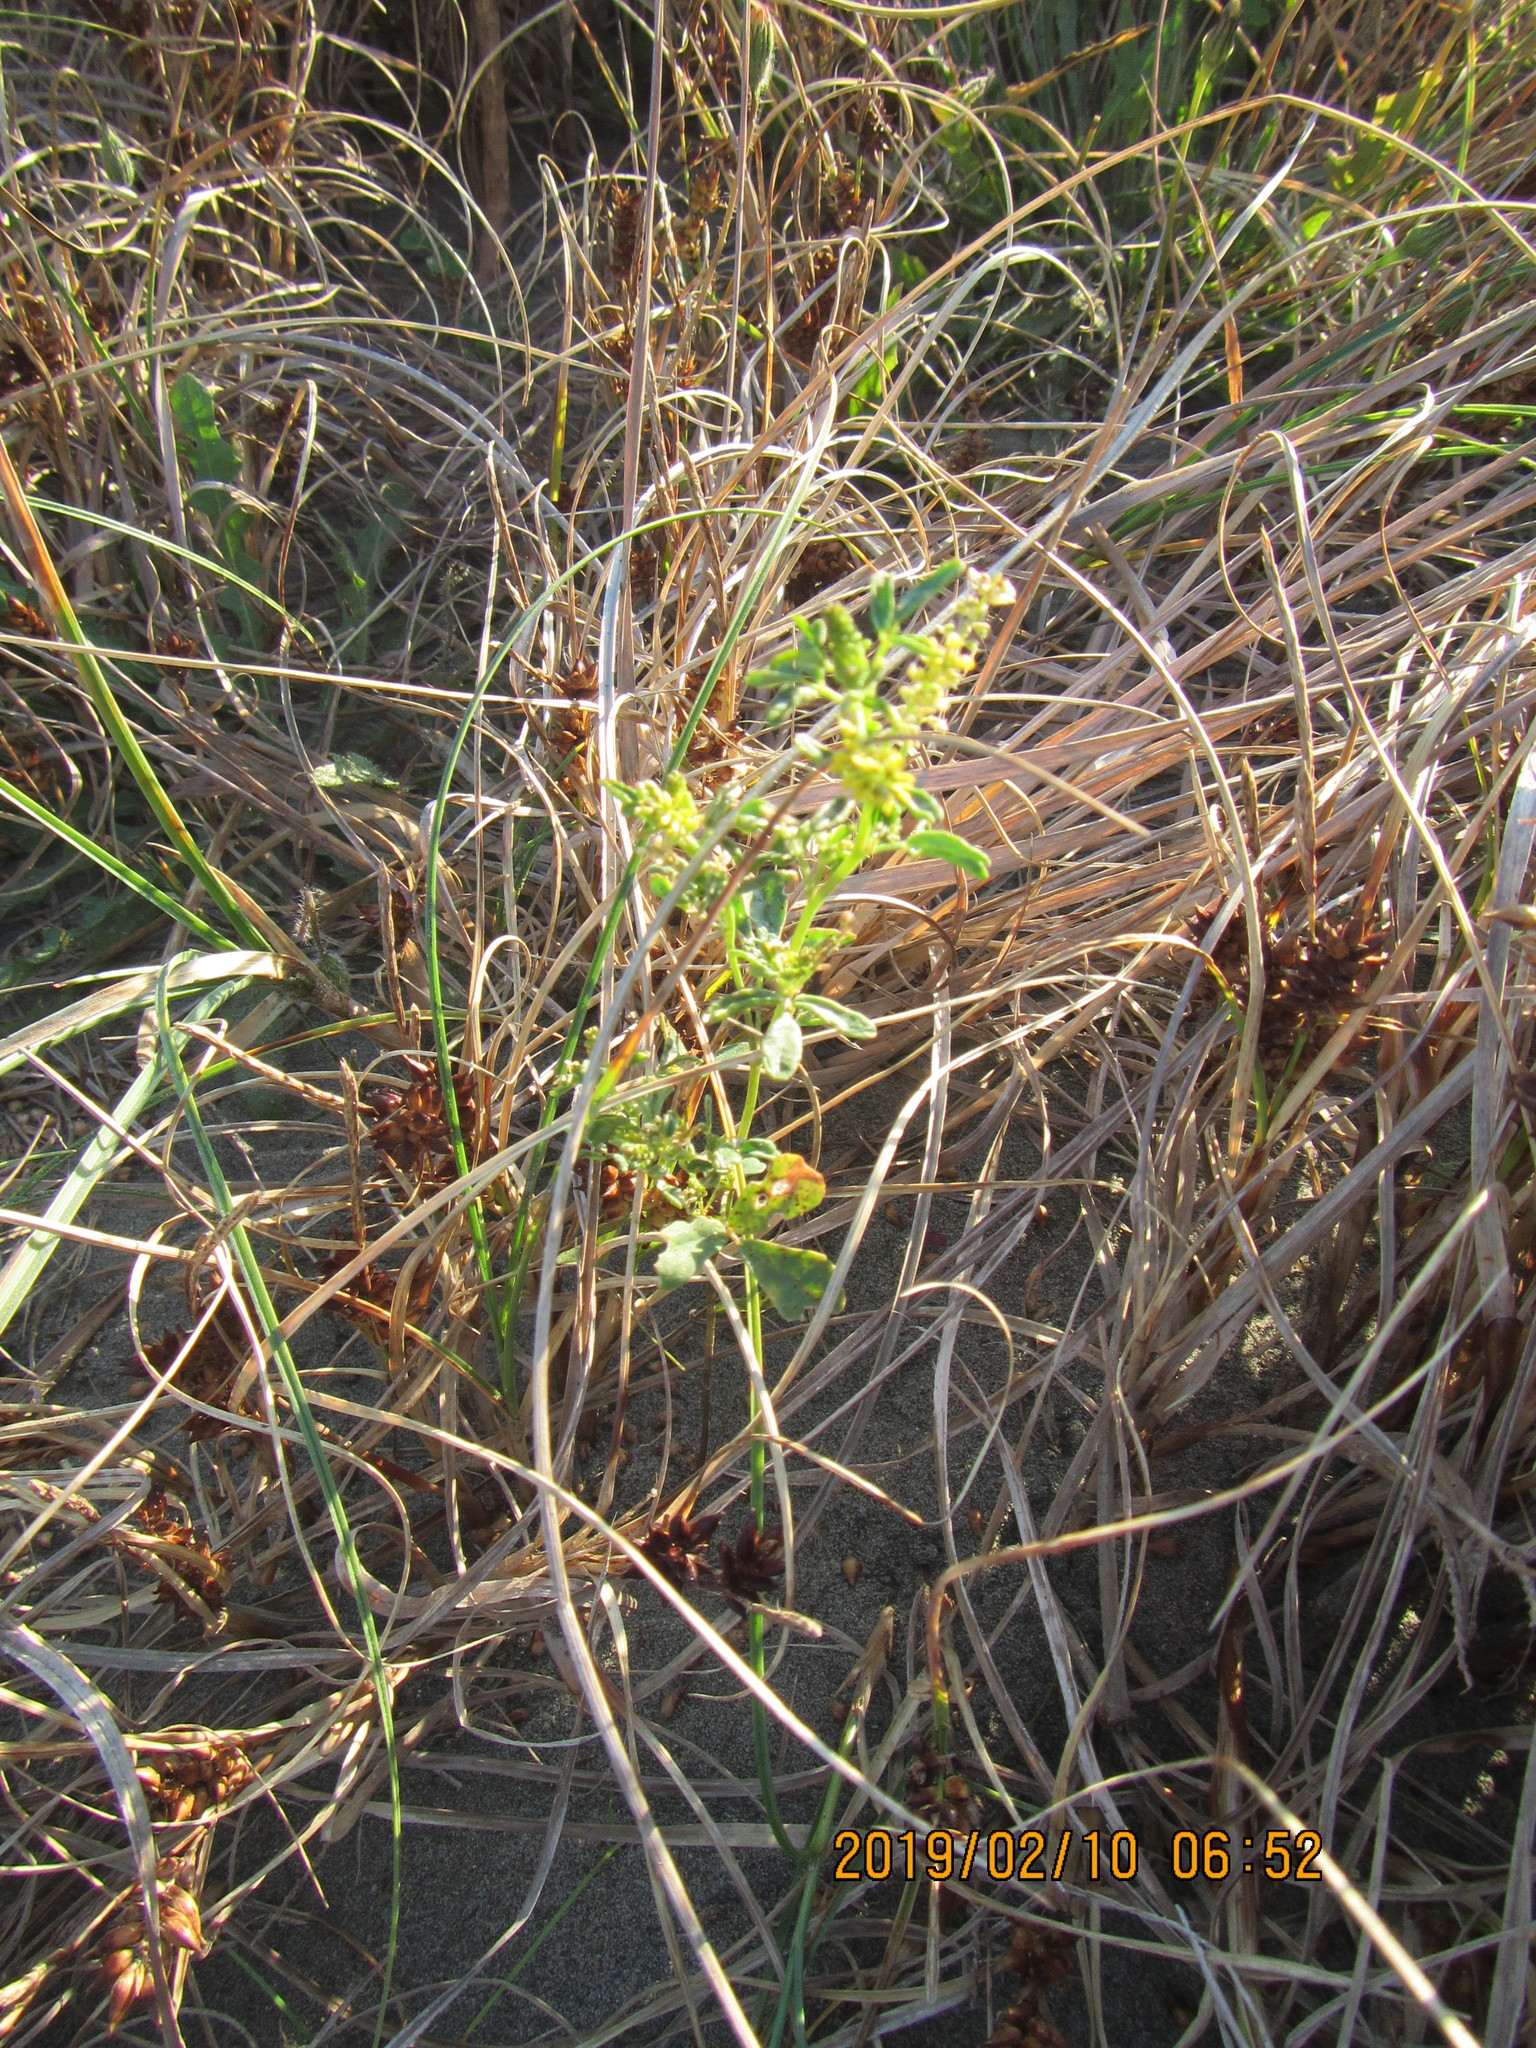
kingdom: Plantae
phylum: Tracheophyta
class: Magnoliopsida
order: Fabales
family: Fabaceae
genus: Melilotus
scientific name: Melilotus indicus
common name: Small melilot
